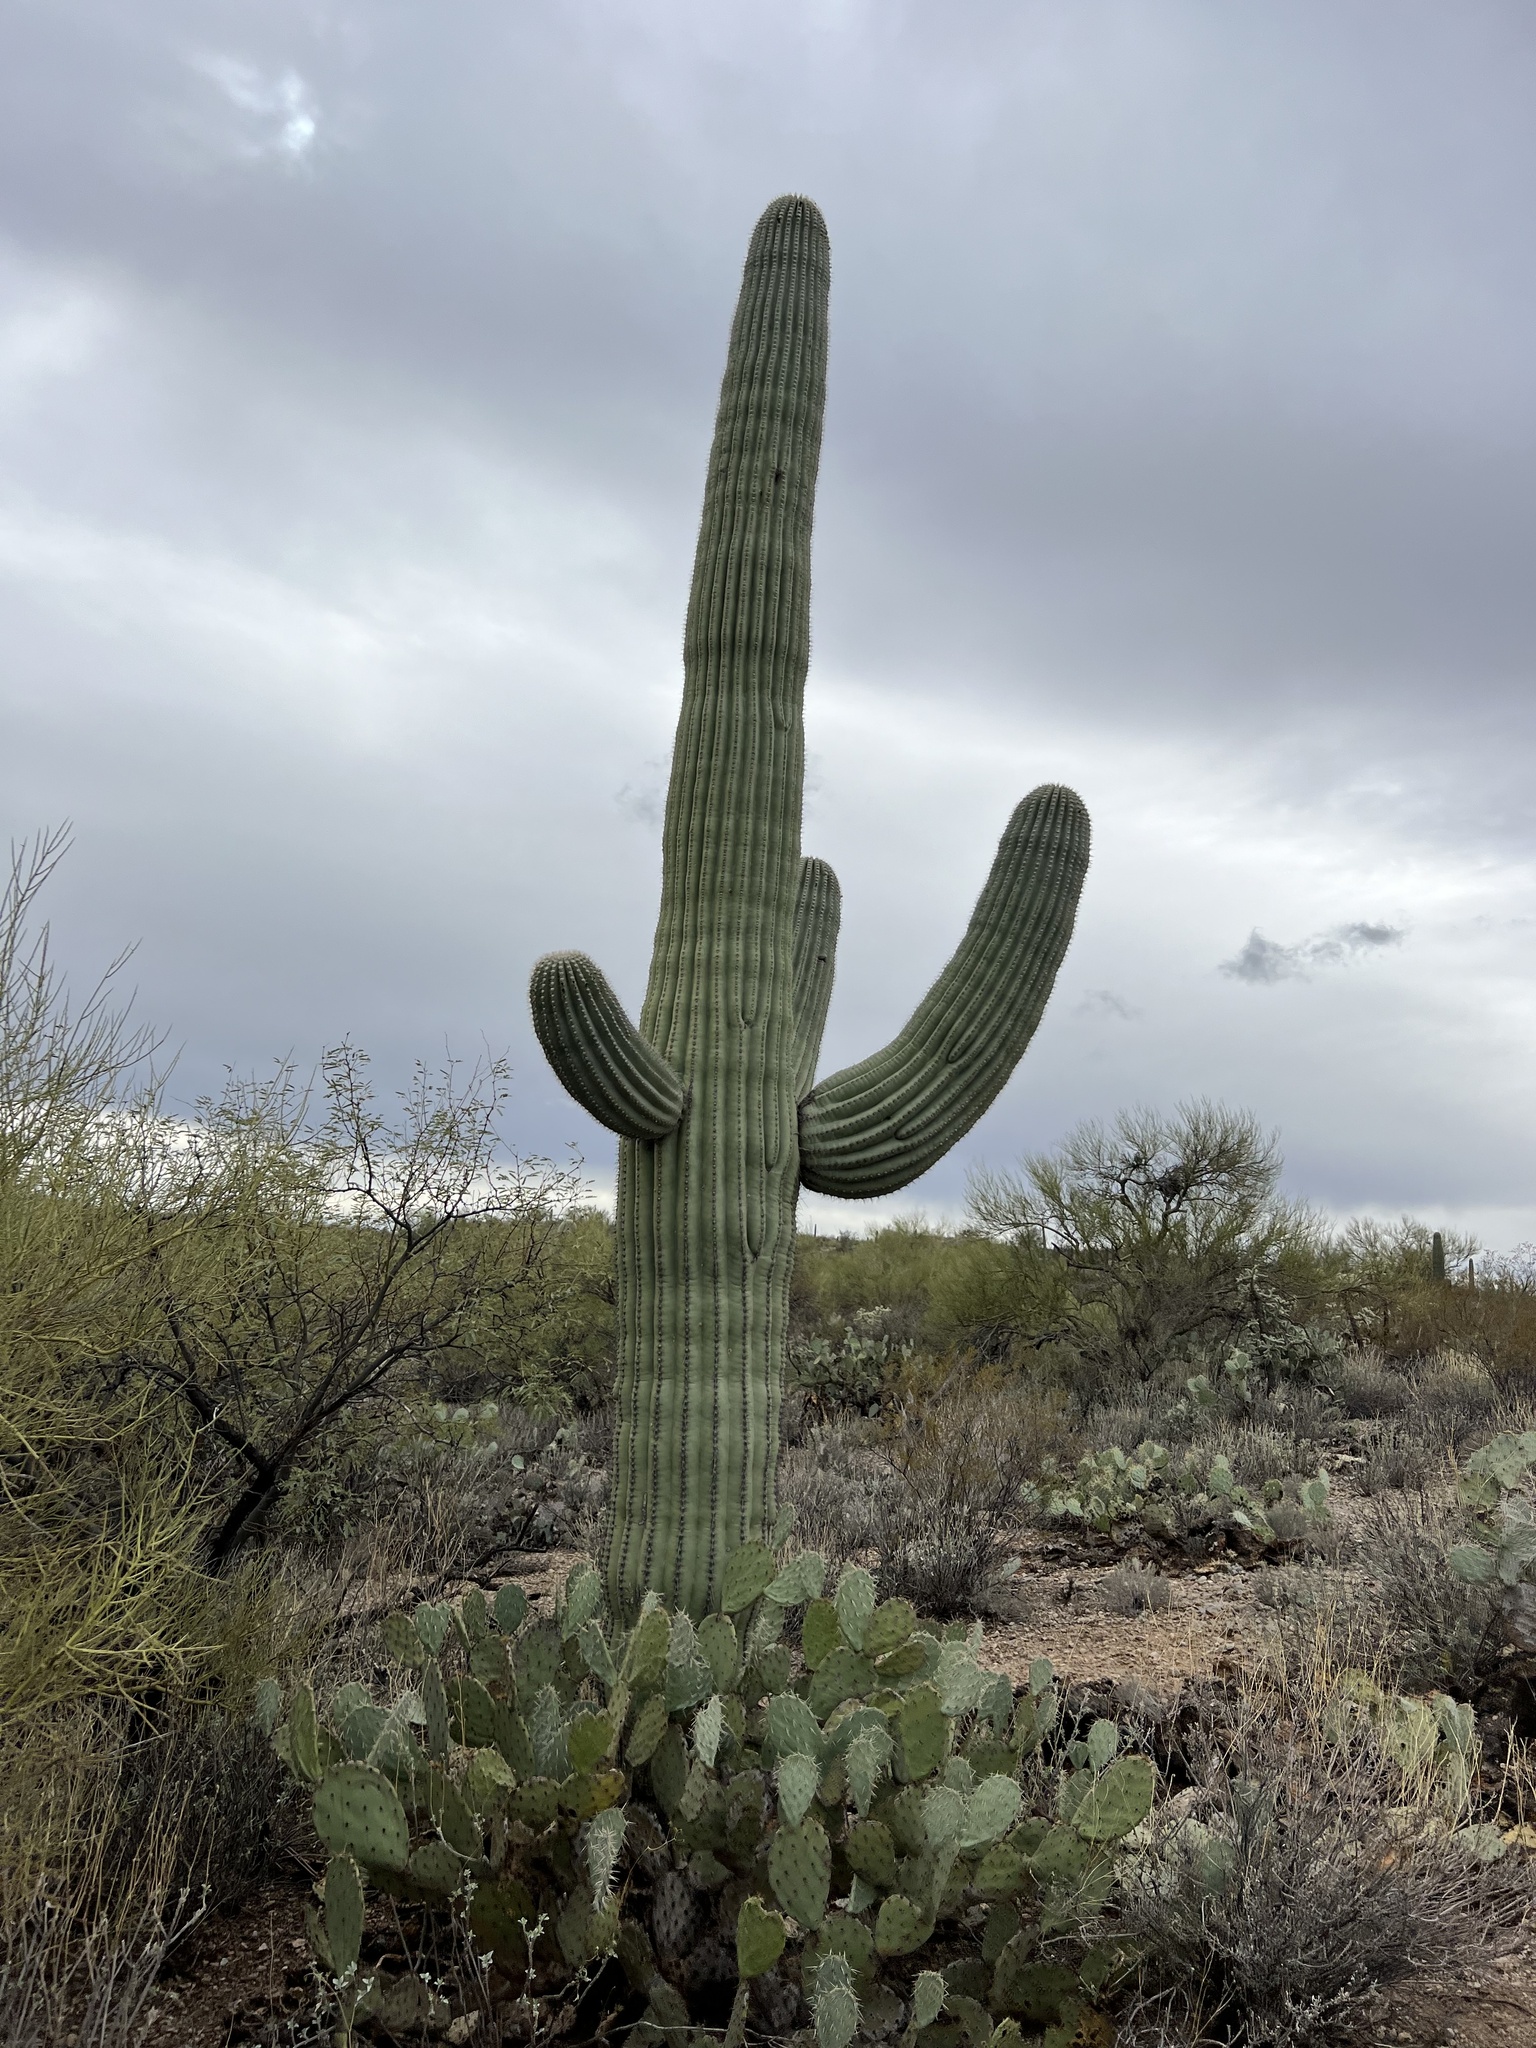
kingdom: Plantae
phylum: Tracheophyta
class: Magnoliopsida
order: Caryophyllales
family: Cactaceae
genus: Carnegiea
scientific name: Carnegiea gigantea
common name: Saguaro
